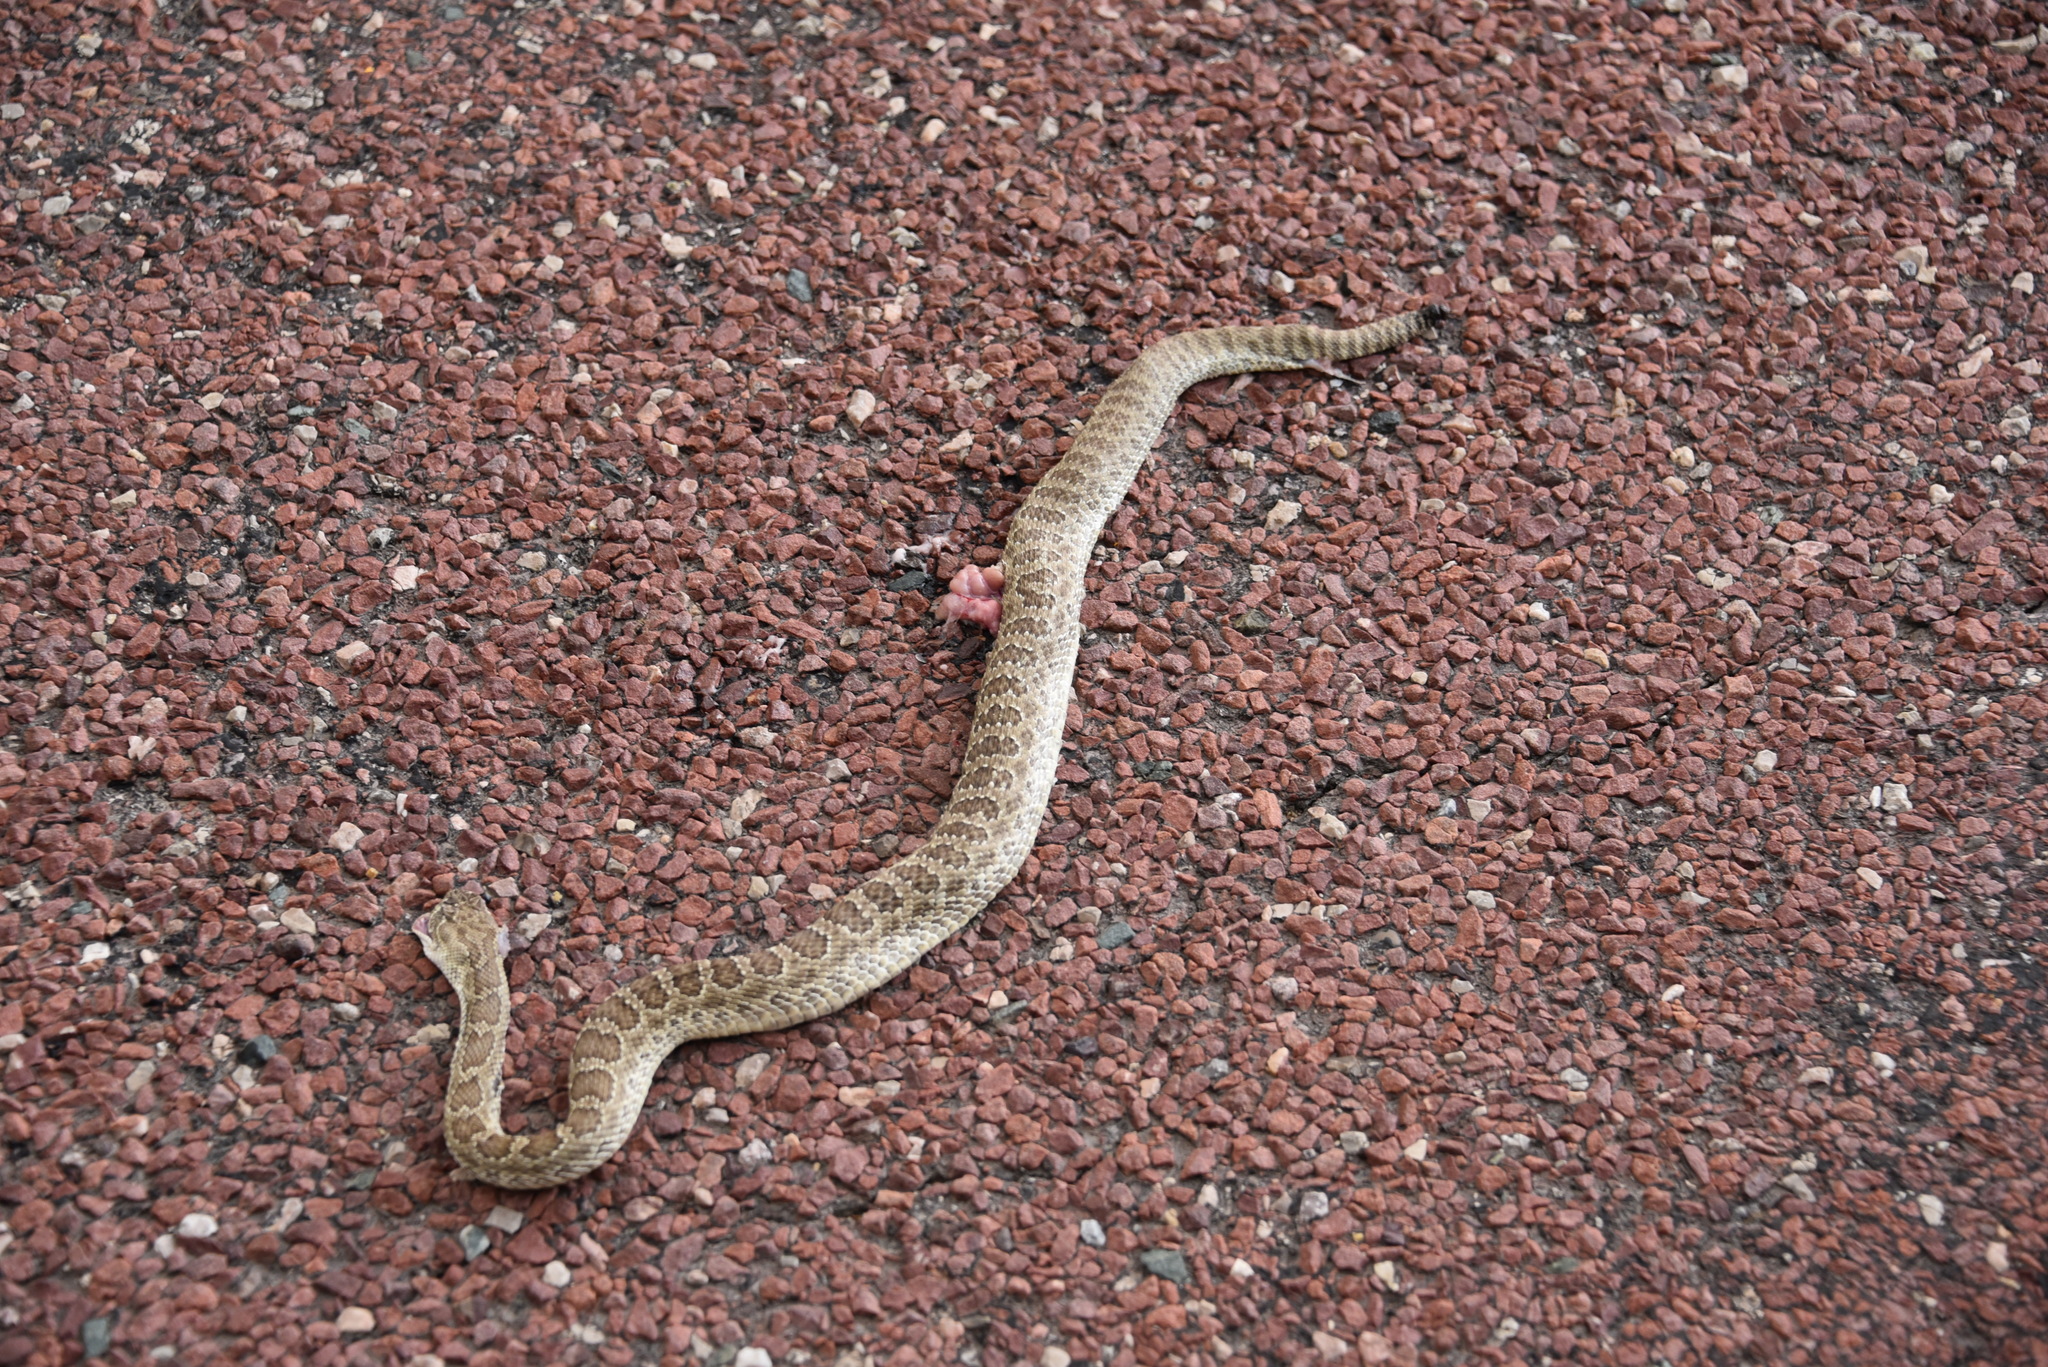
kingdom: Animalia
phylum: Chordata
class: Squamata
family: Viperidae
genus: Crotalus
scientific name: Crotalus viridis
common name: Prairie rattlesnake
